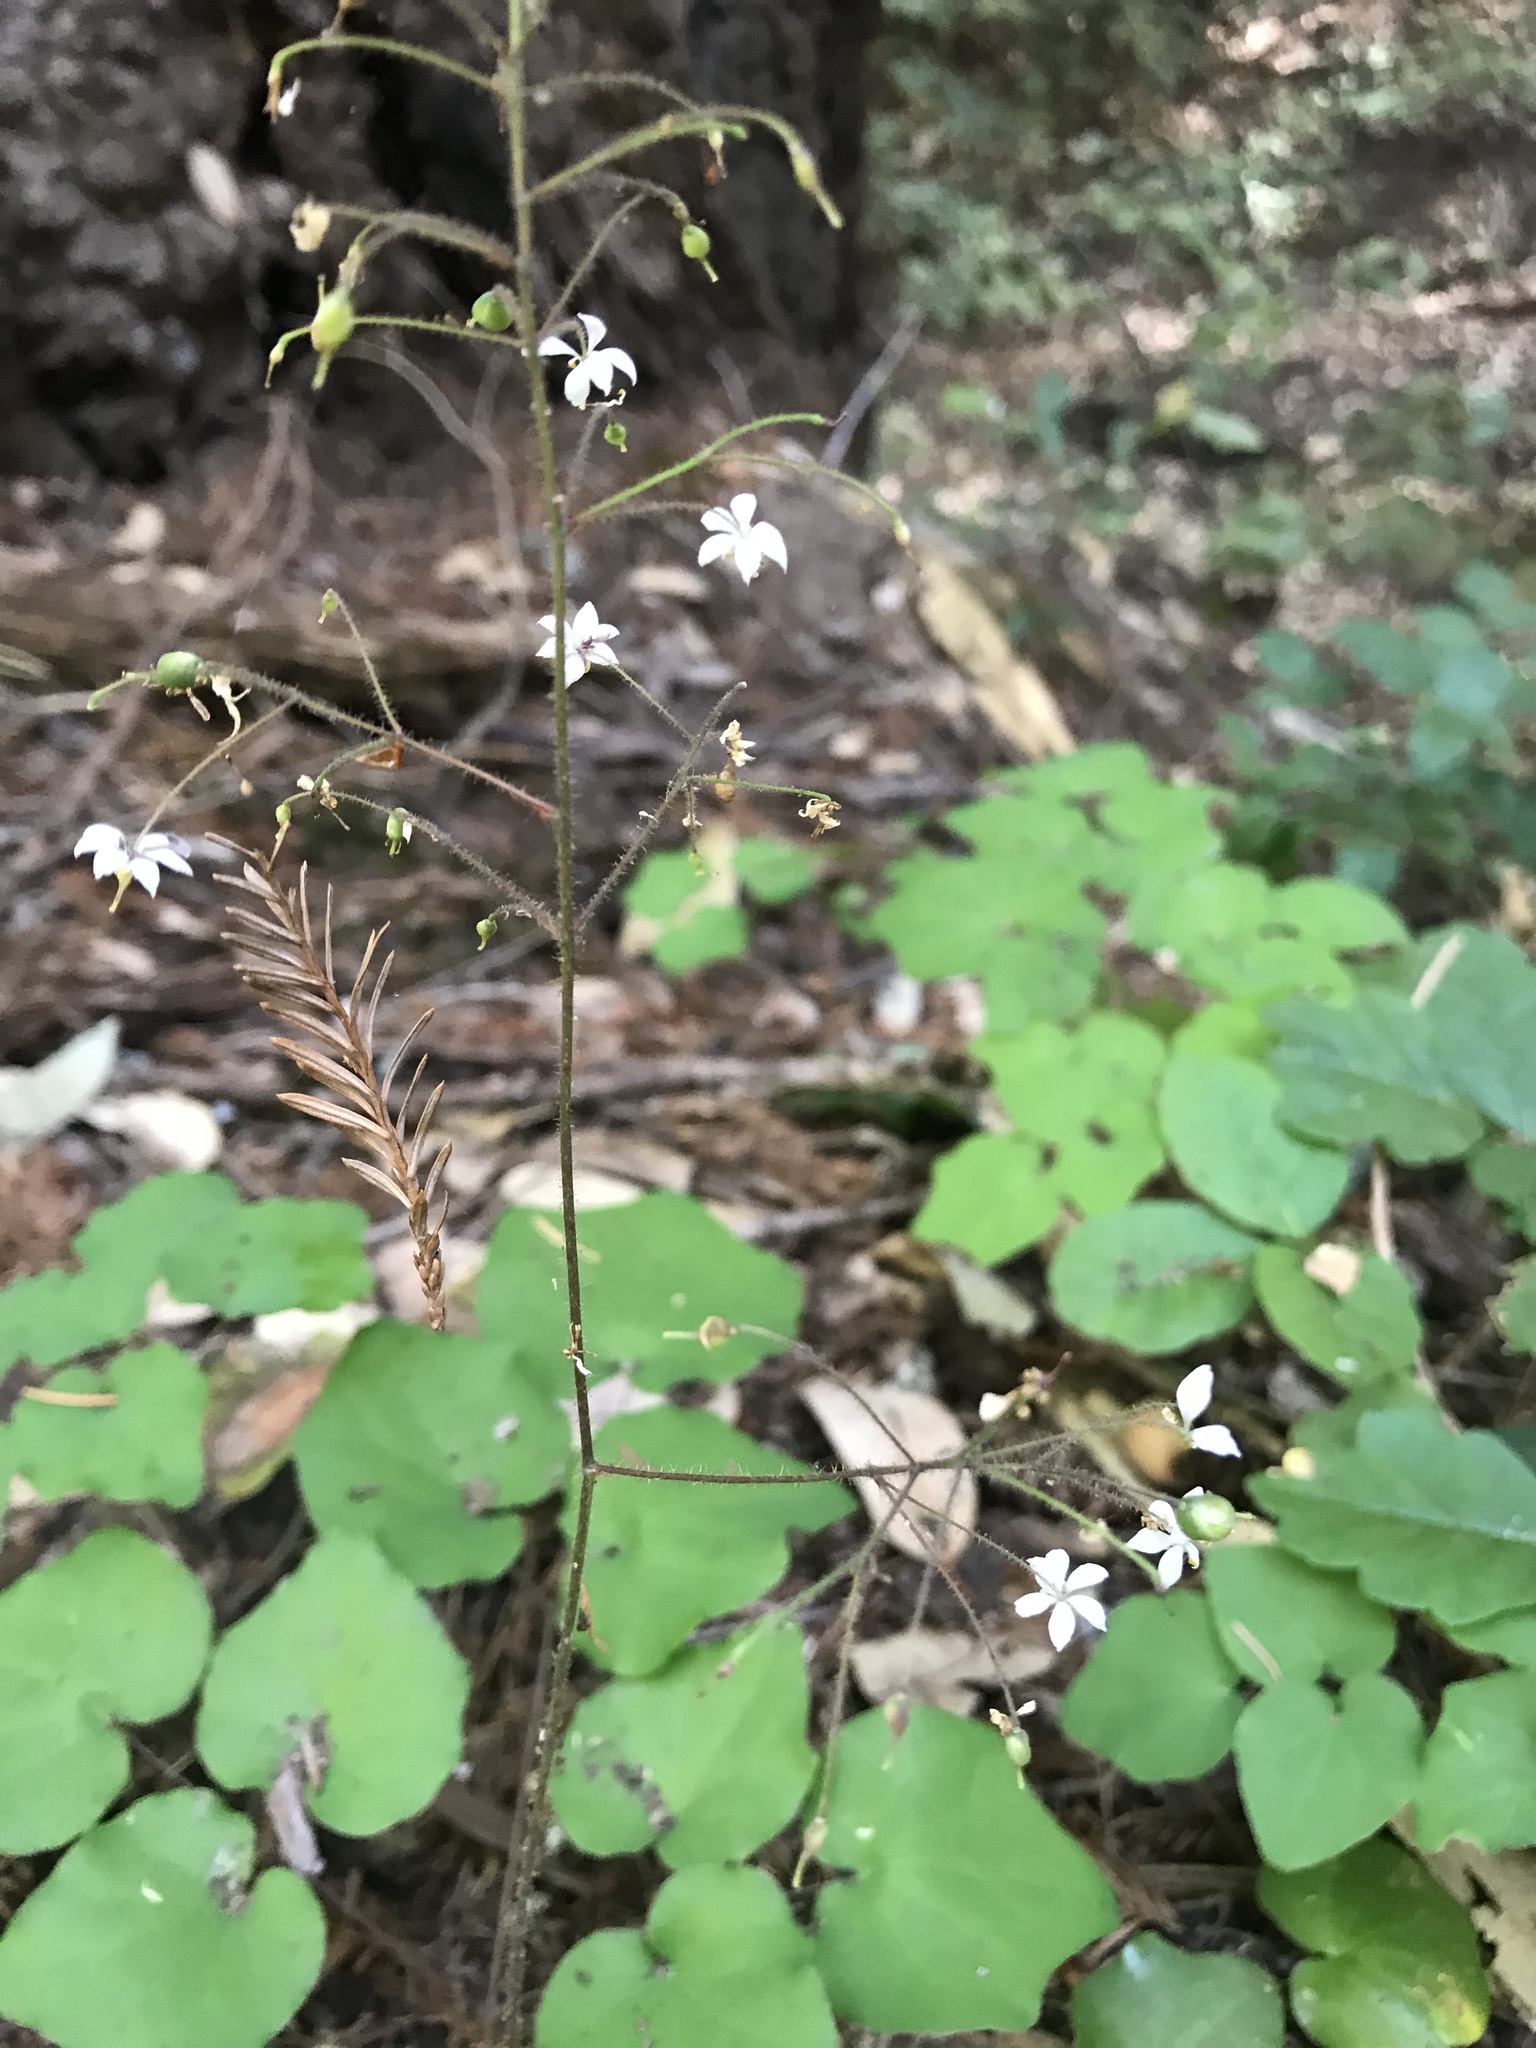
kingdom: Plantae
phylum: Tracheophyta
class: Magnoliopsida
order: Ranunculales
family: Berberidaceae
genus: Vancouveria
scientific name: Vancouveria planipetala
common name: Redwood-ivy
